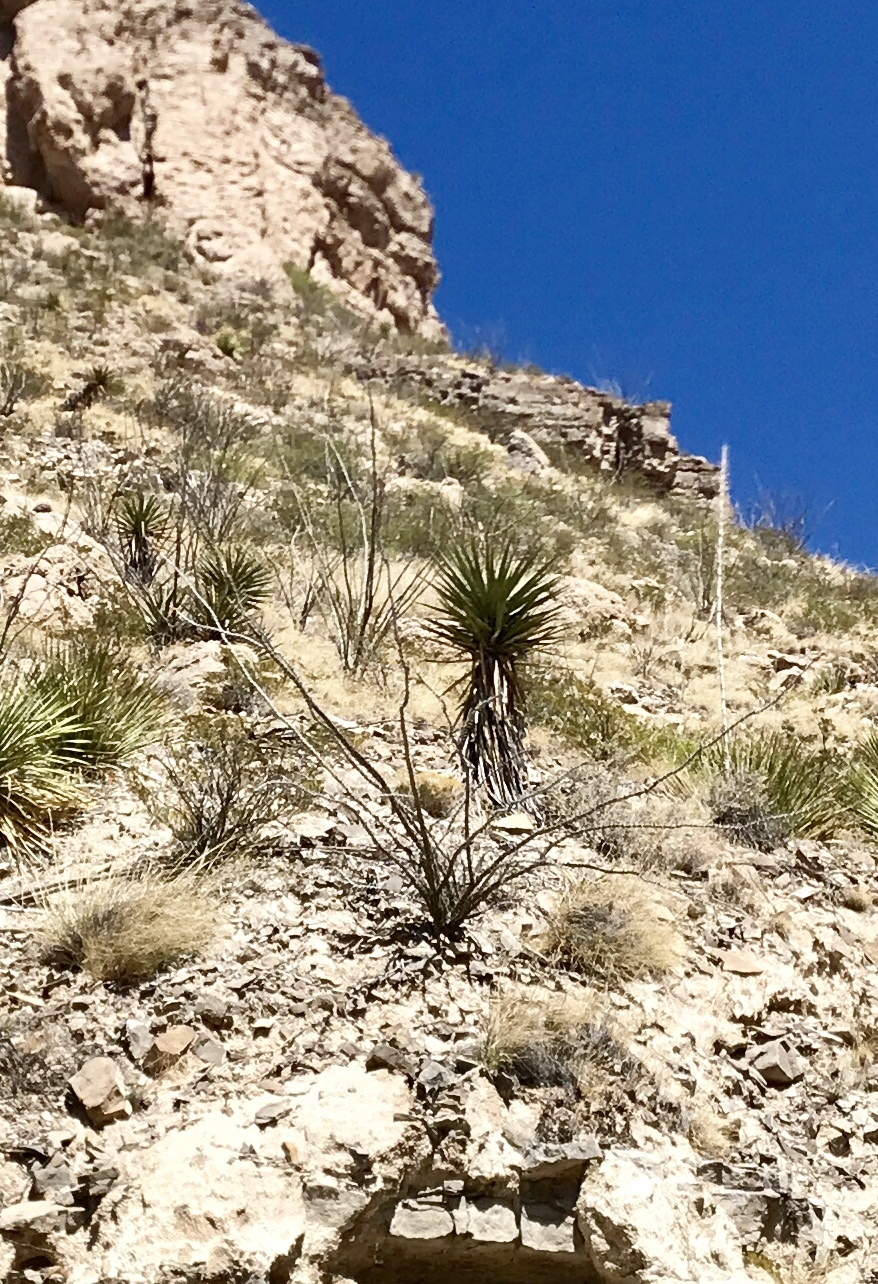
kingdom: Plantae
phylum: Tracheophyta
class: Magnoliopsida
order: Ericales
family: Fouquieriaceae
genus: Fouquieria
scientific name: Fouquieria splendens
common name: Vine-cactus
